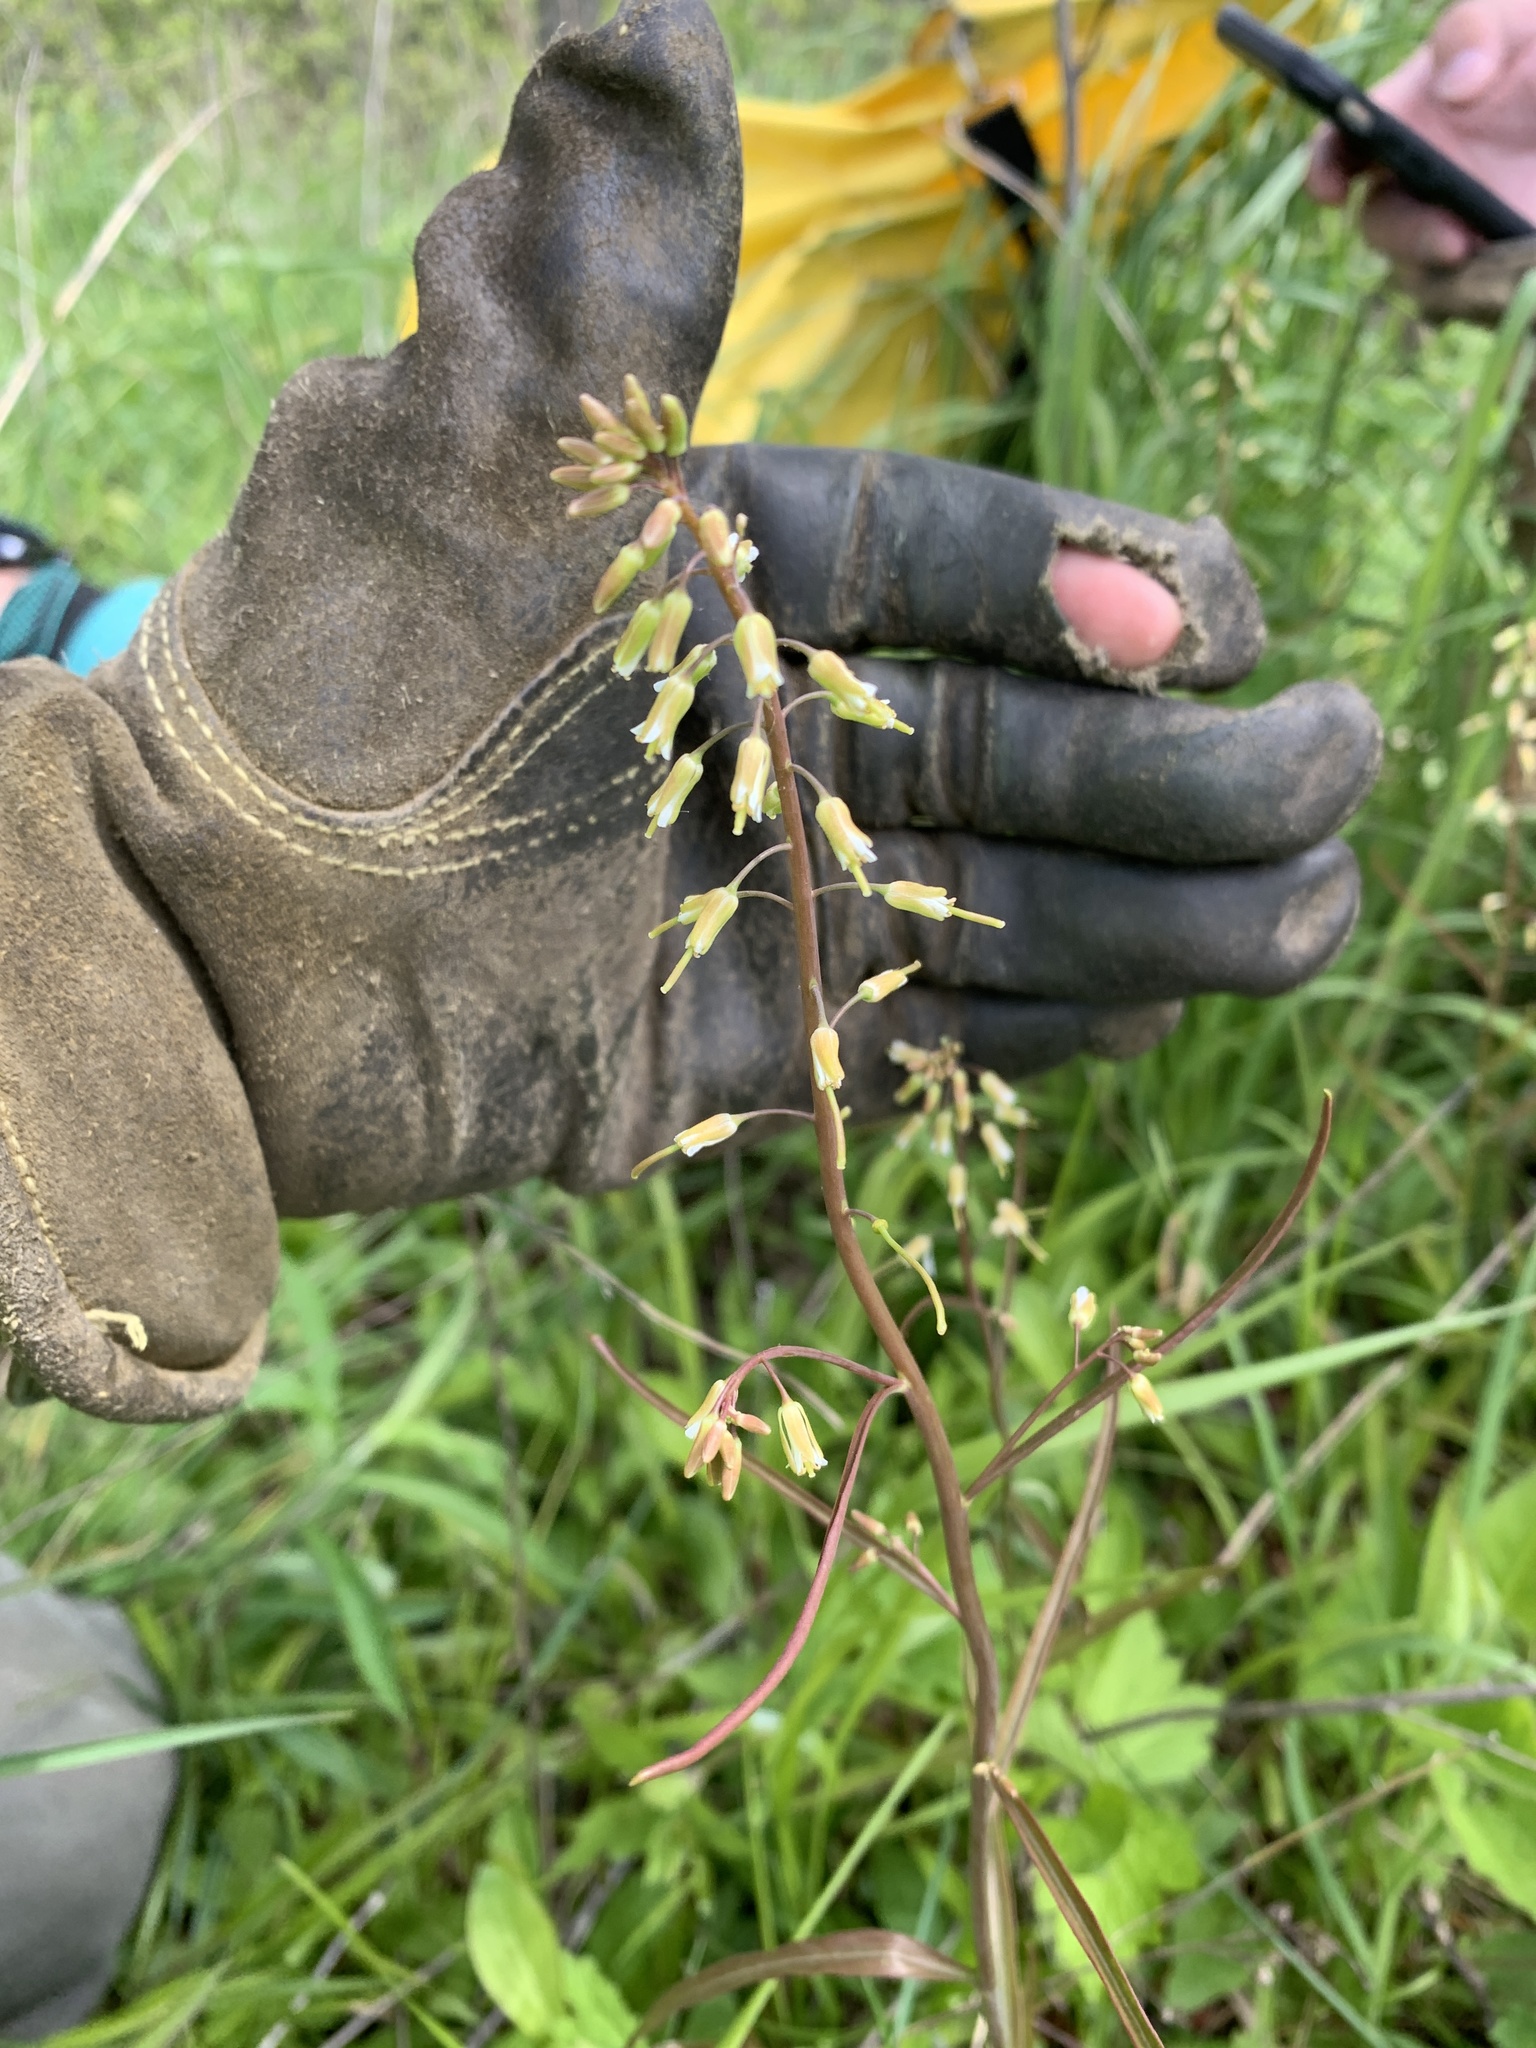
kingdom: Plantae
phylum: Tracheophyta
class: Magnoliopsida
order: Brassicales
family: Brassicaceae
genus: Borodinia
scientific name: Borodinia laevigata
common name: Smooth rockcress
